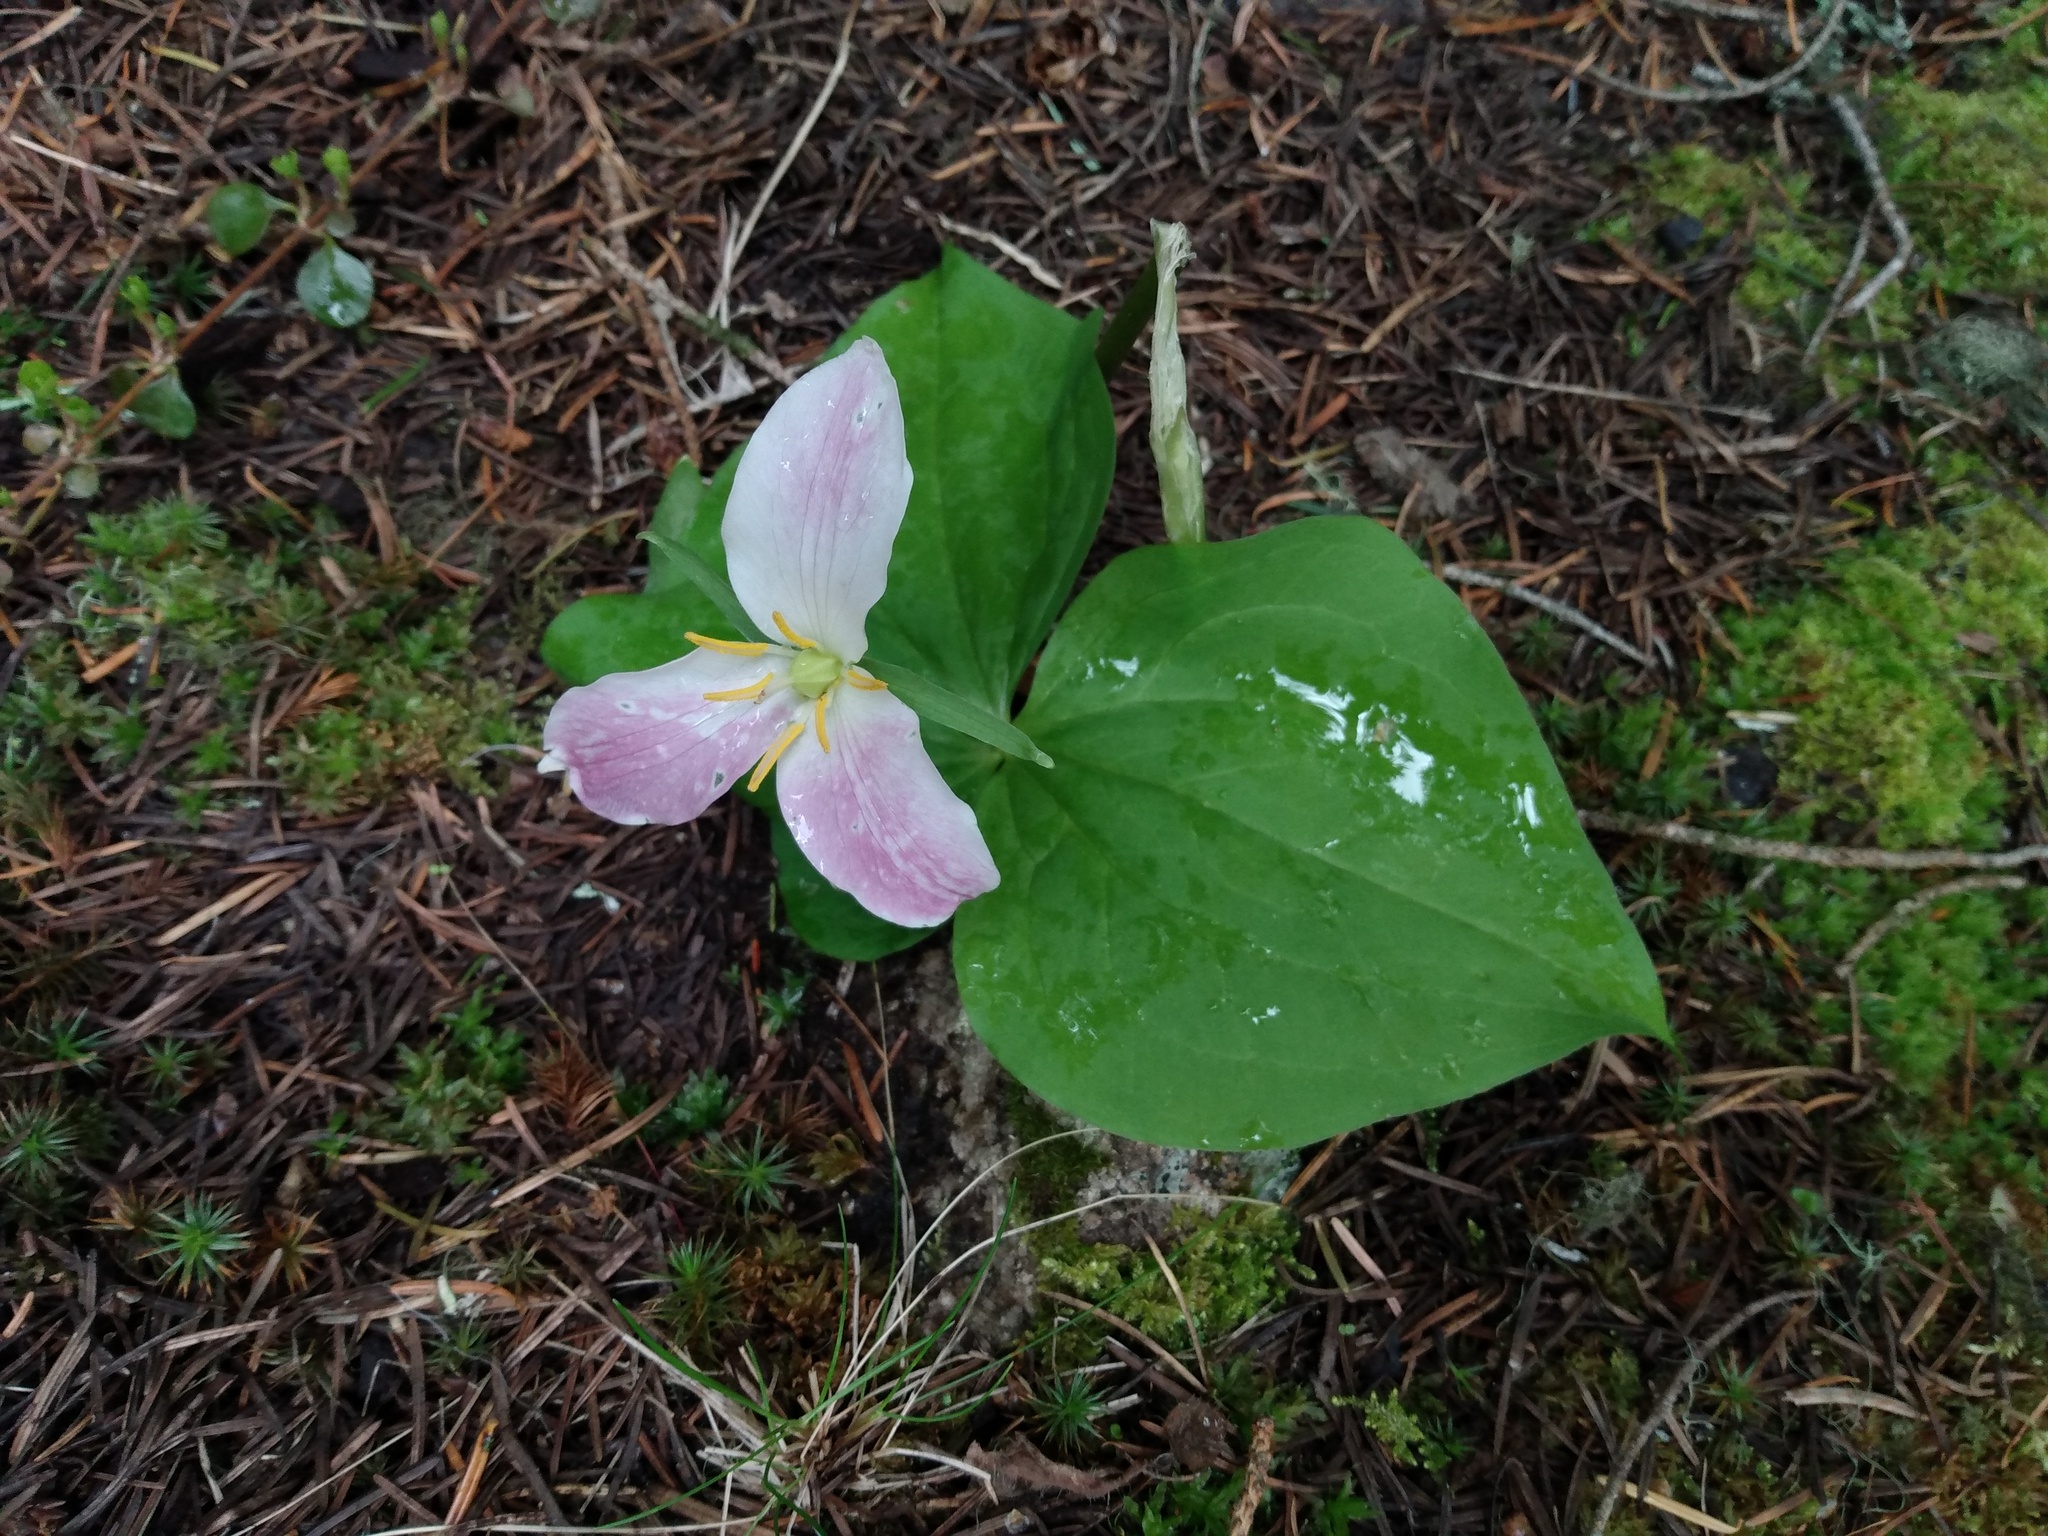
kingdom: Plantae
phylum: Tracheophyta
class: Liliopsida
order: Liliales
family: Melanthiaceae
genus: Trillium
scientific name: Trillium ovatum
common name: Pacific trillium
